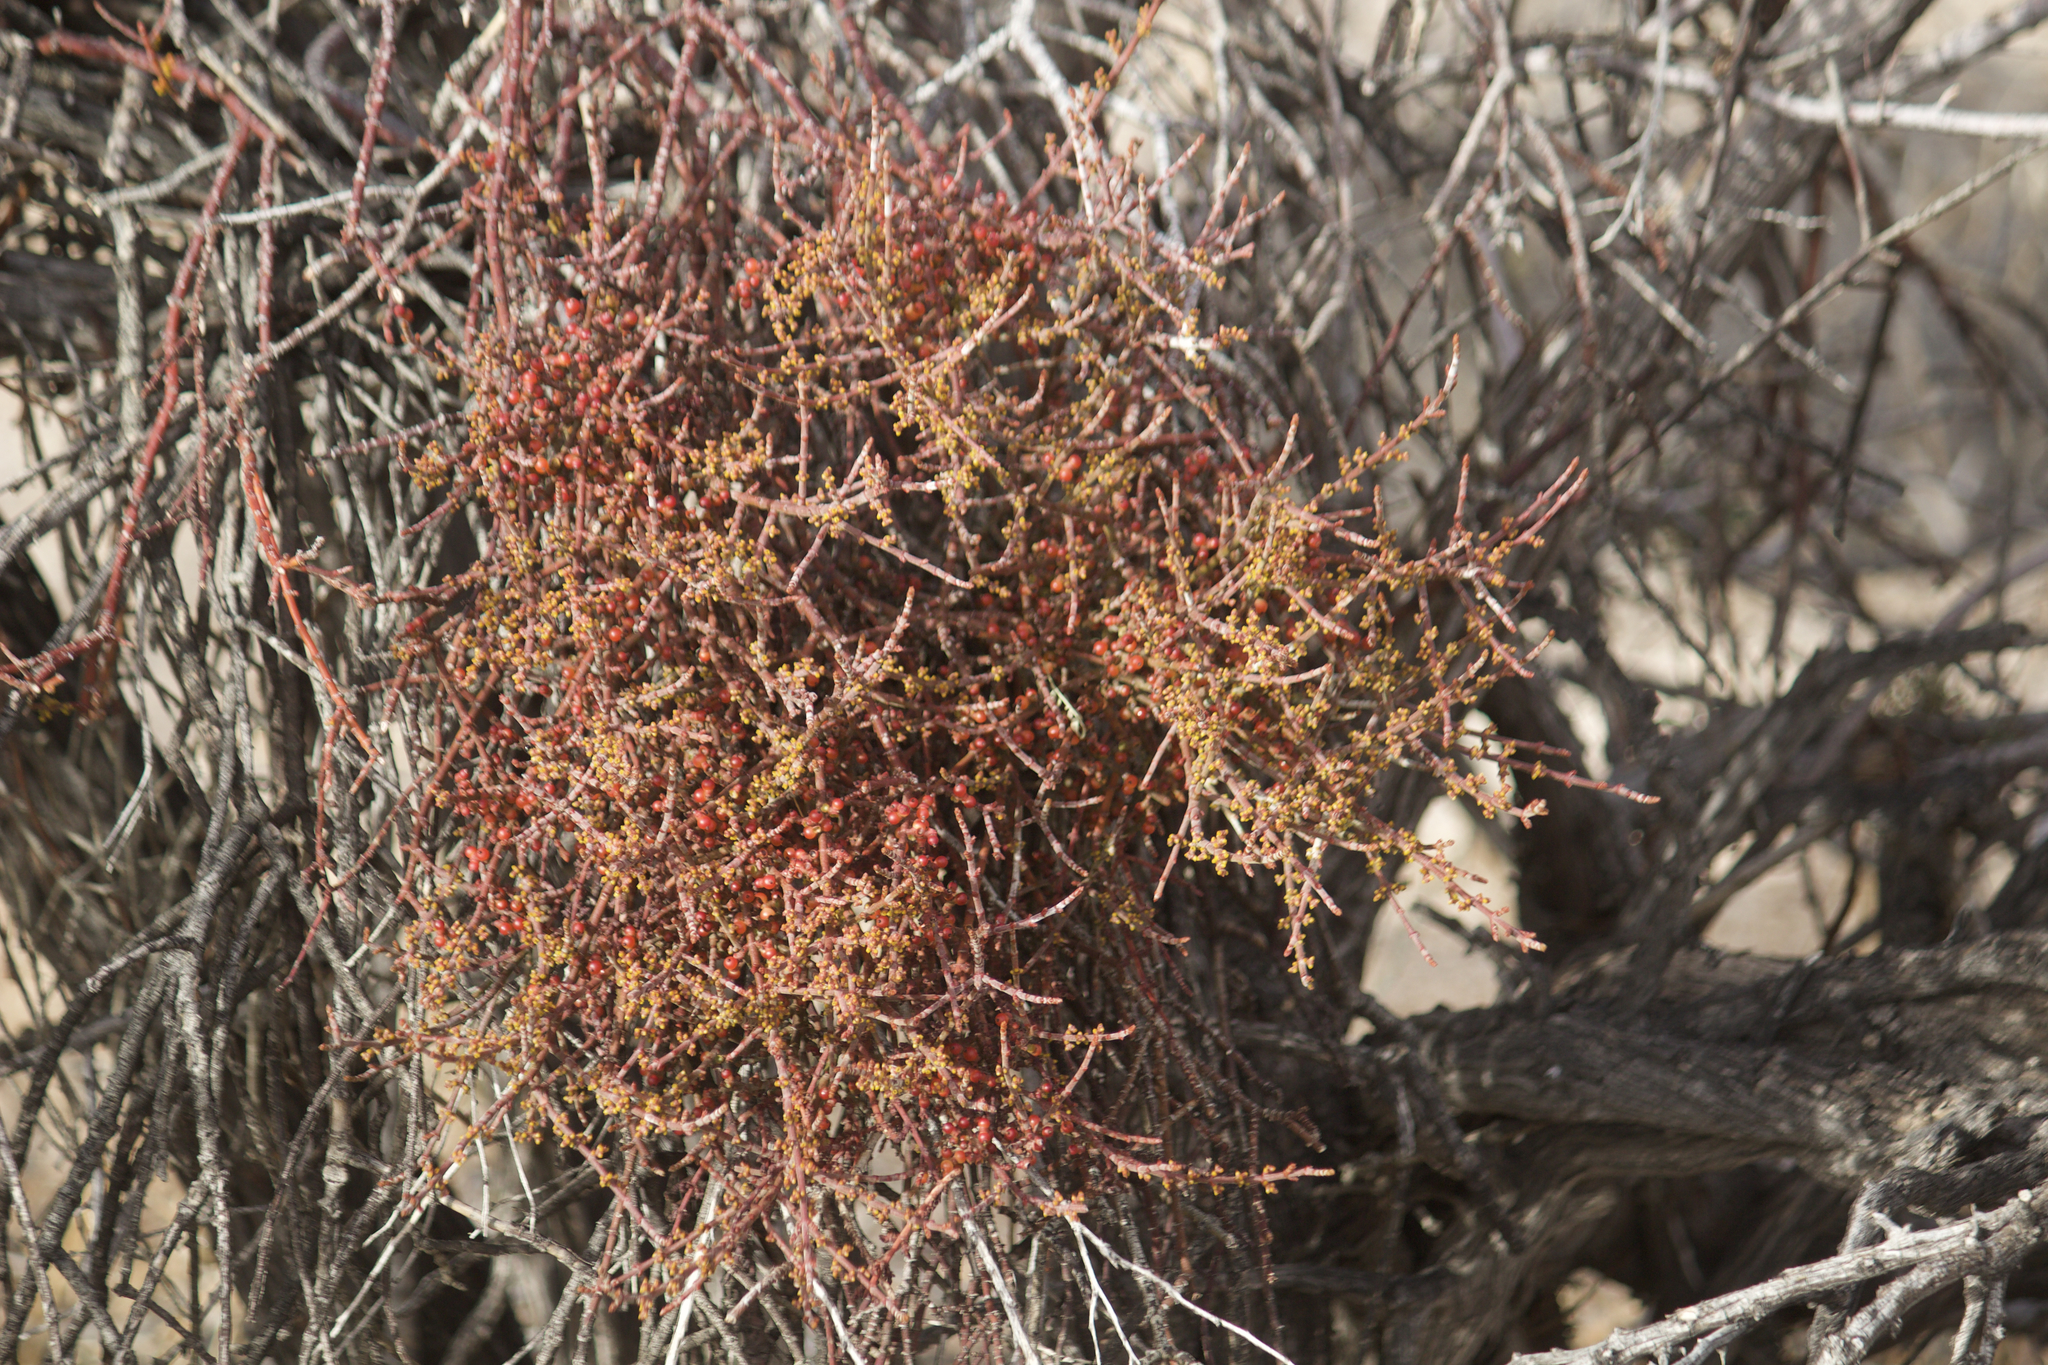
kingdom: Plantae
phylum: Tracheophyta
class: Magnoliopsida
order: Santalales
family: Viscaceae
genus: Phoradendron
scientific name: Phoradendron californicum
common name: Acacia mistletoe
